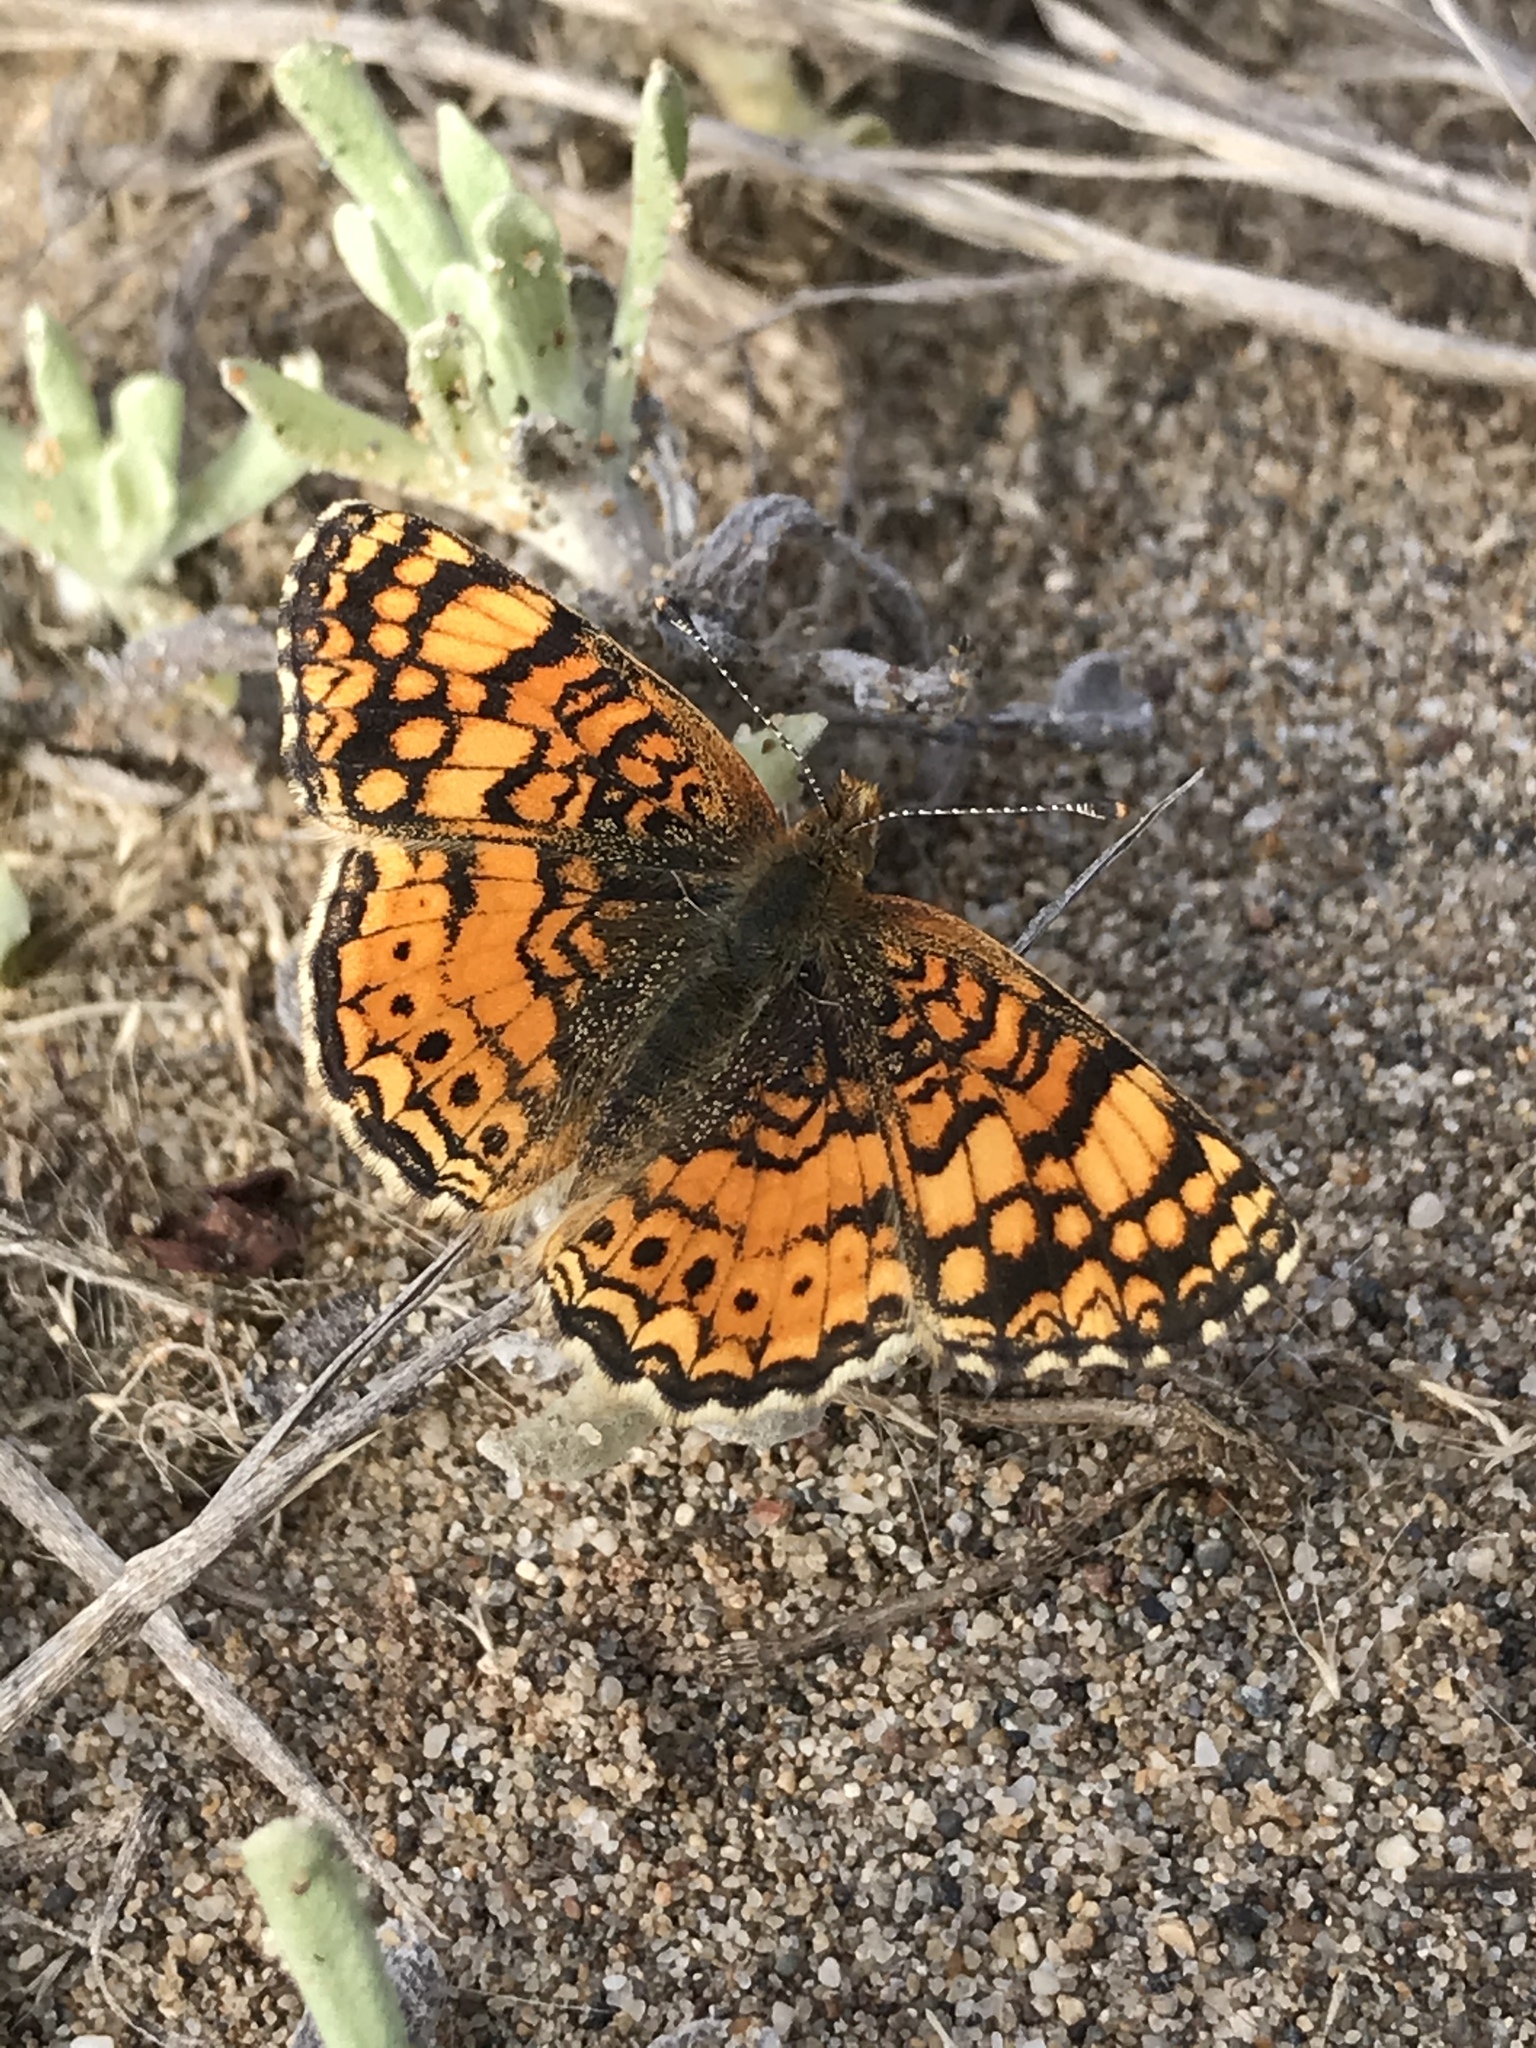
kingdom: Animalia
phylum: Arthropoda
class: Insecta
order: Lepidoptera
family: Nymphalidae
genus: Eresia
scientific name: Eresia aveyrona
